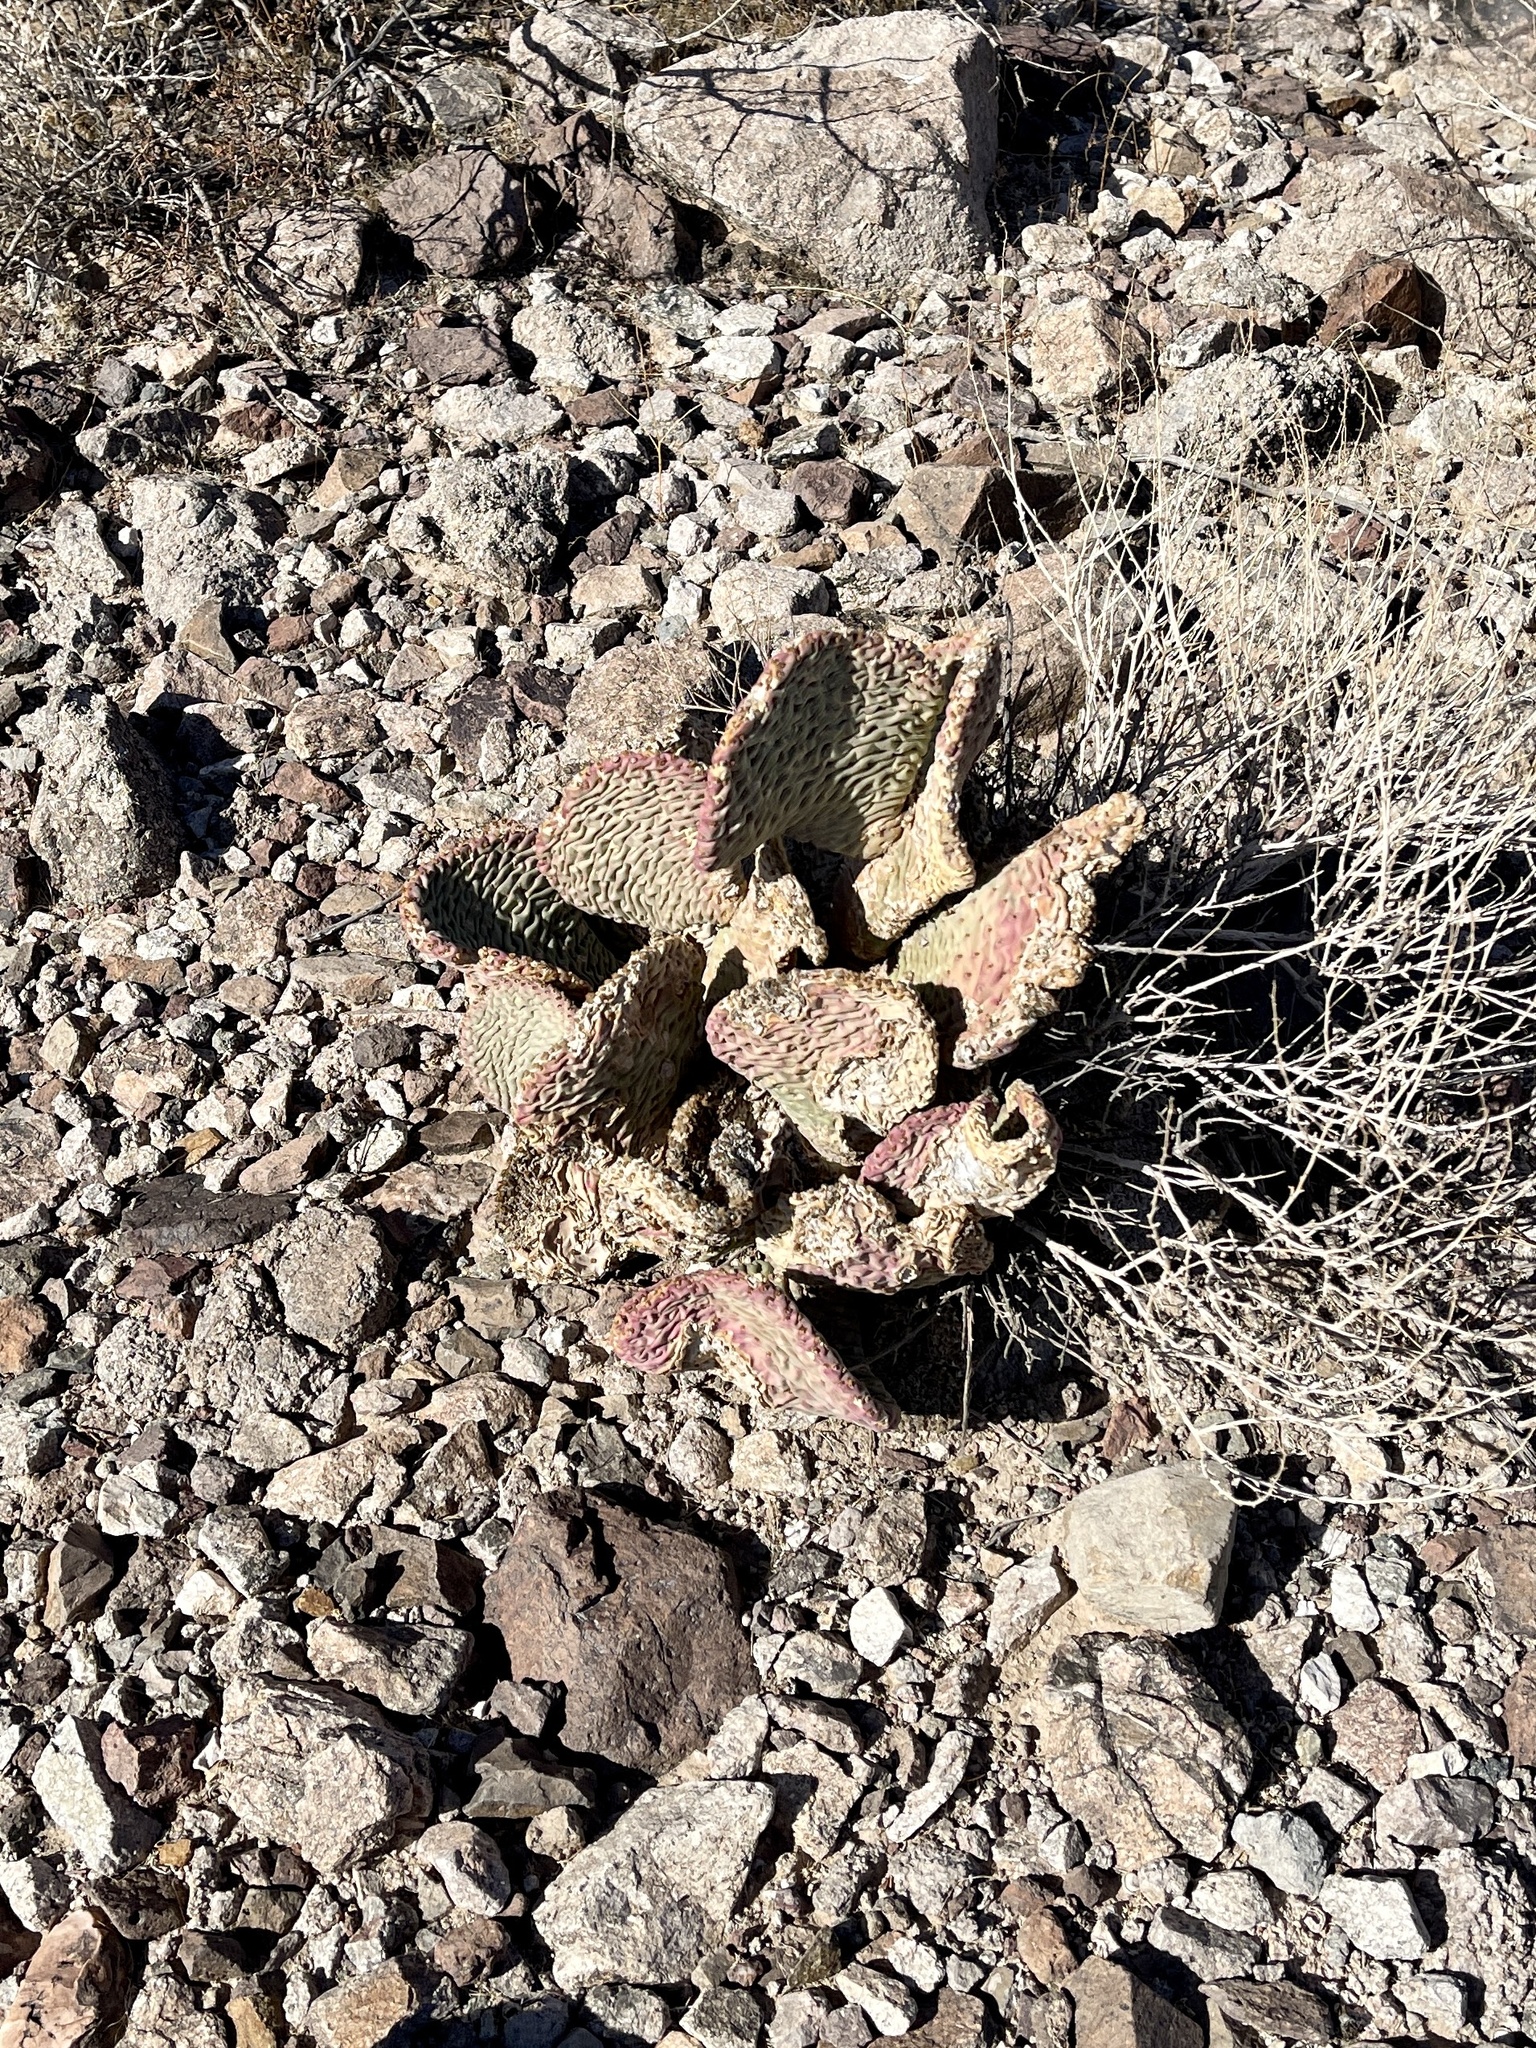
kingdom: Plantae
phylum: Tracheophyta
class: Magnoliopsida
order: Caryophyllales
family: Cactaceae
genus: Opuntia
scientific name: Opuntia basilaris
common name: Beavertail prickly-pear
